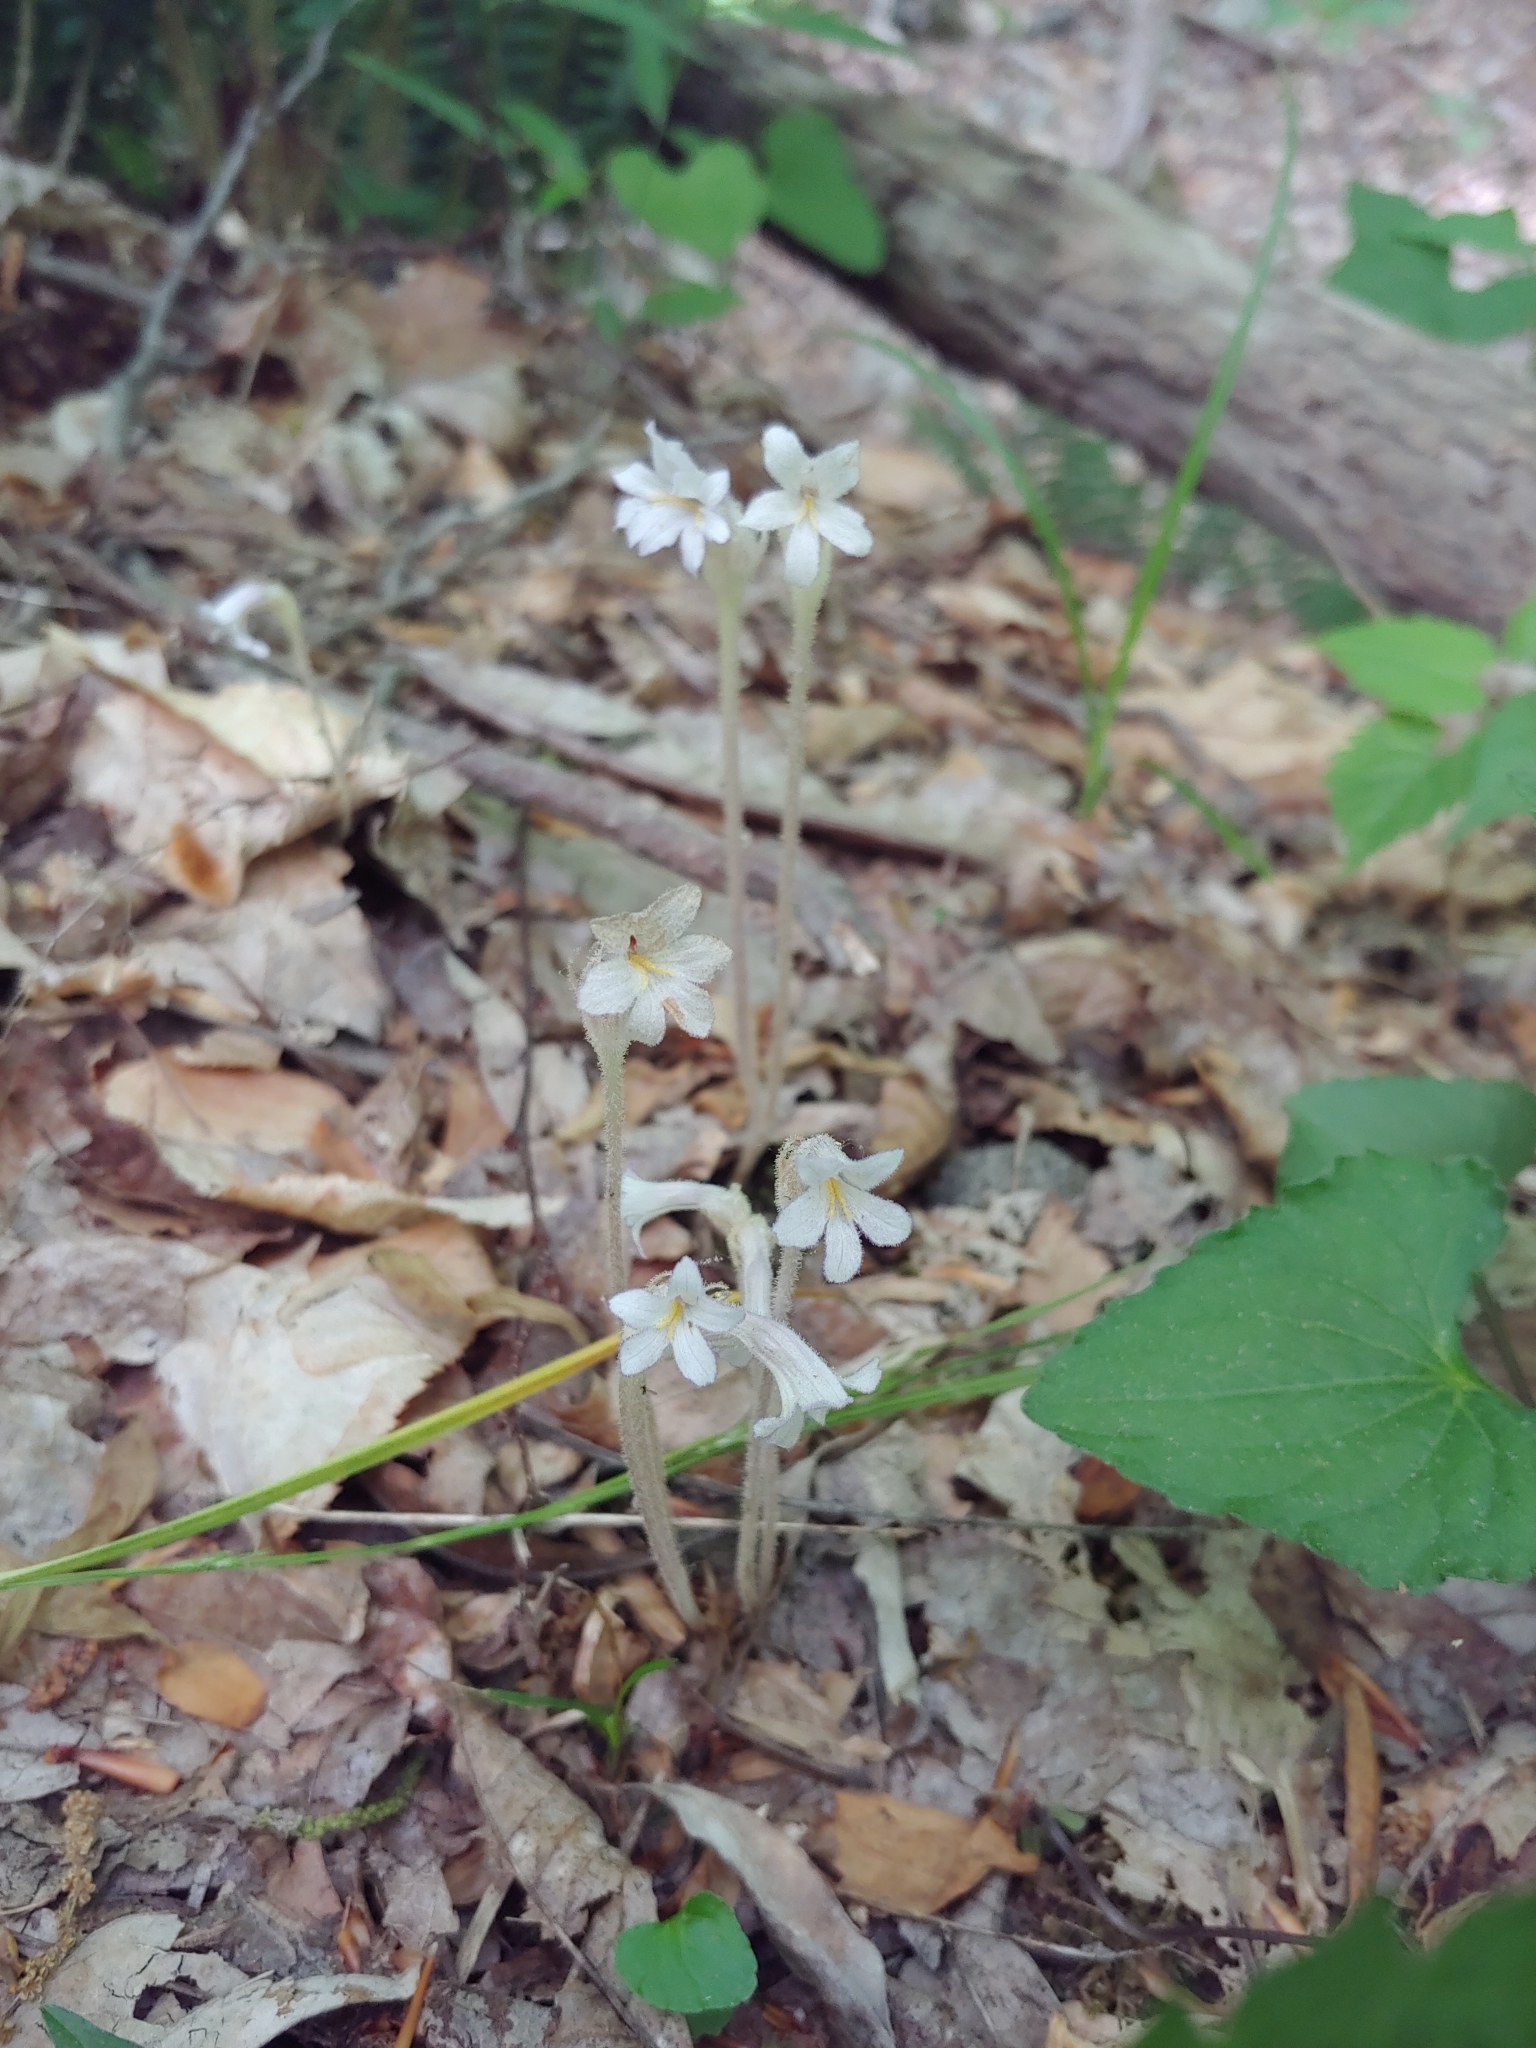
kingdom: Plantae
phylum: Tracheophyta
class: Magnoliopsida
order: Lamiales
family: Orobanchaceae
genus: Aphyllon
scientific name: Aphyllon uniflorum
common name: One-flowered broomrape
